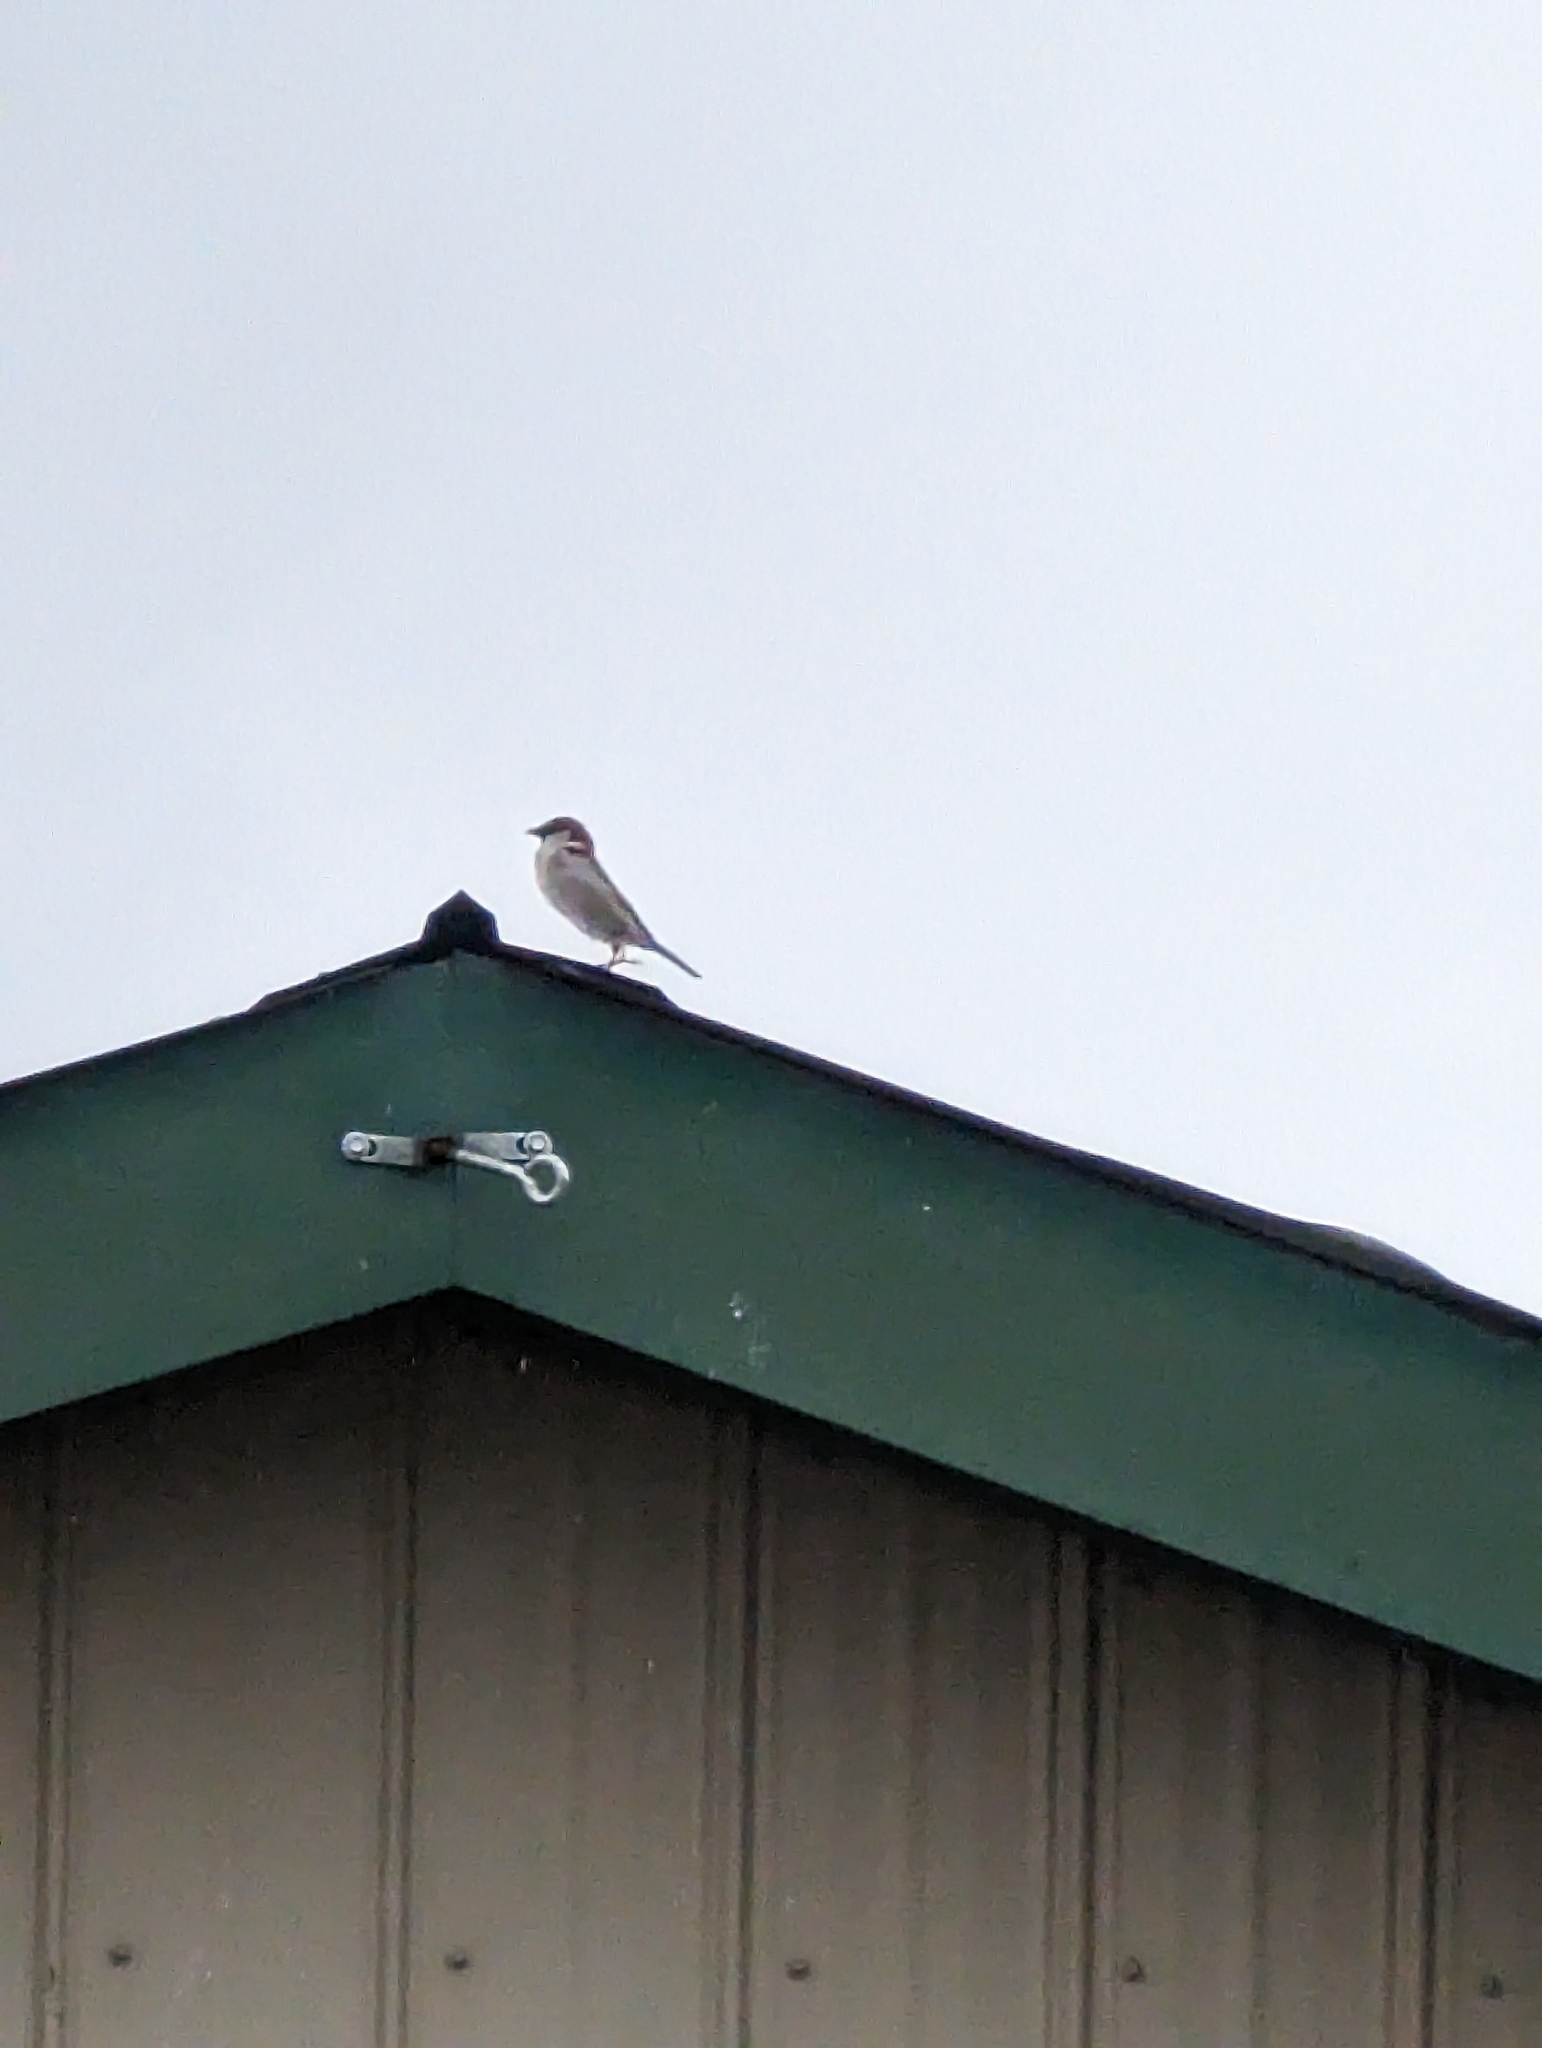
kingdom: Animalia
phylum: Chordata
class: Aves
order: Passeriformes
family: Passeridae
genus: Passer
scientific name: Passer domesticus
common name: House sparrow
